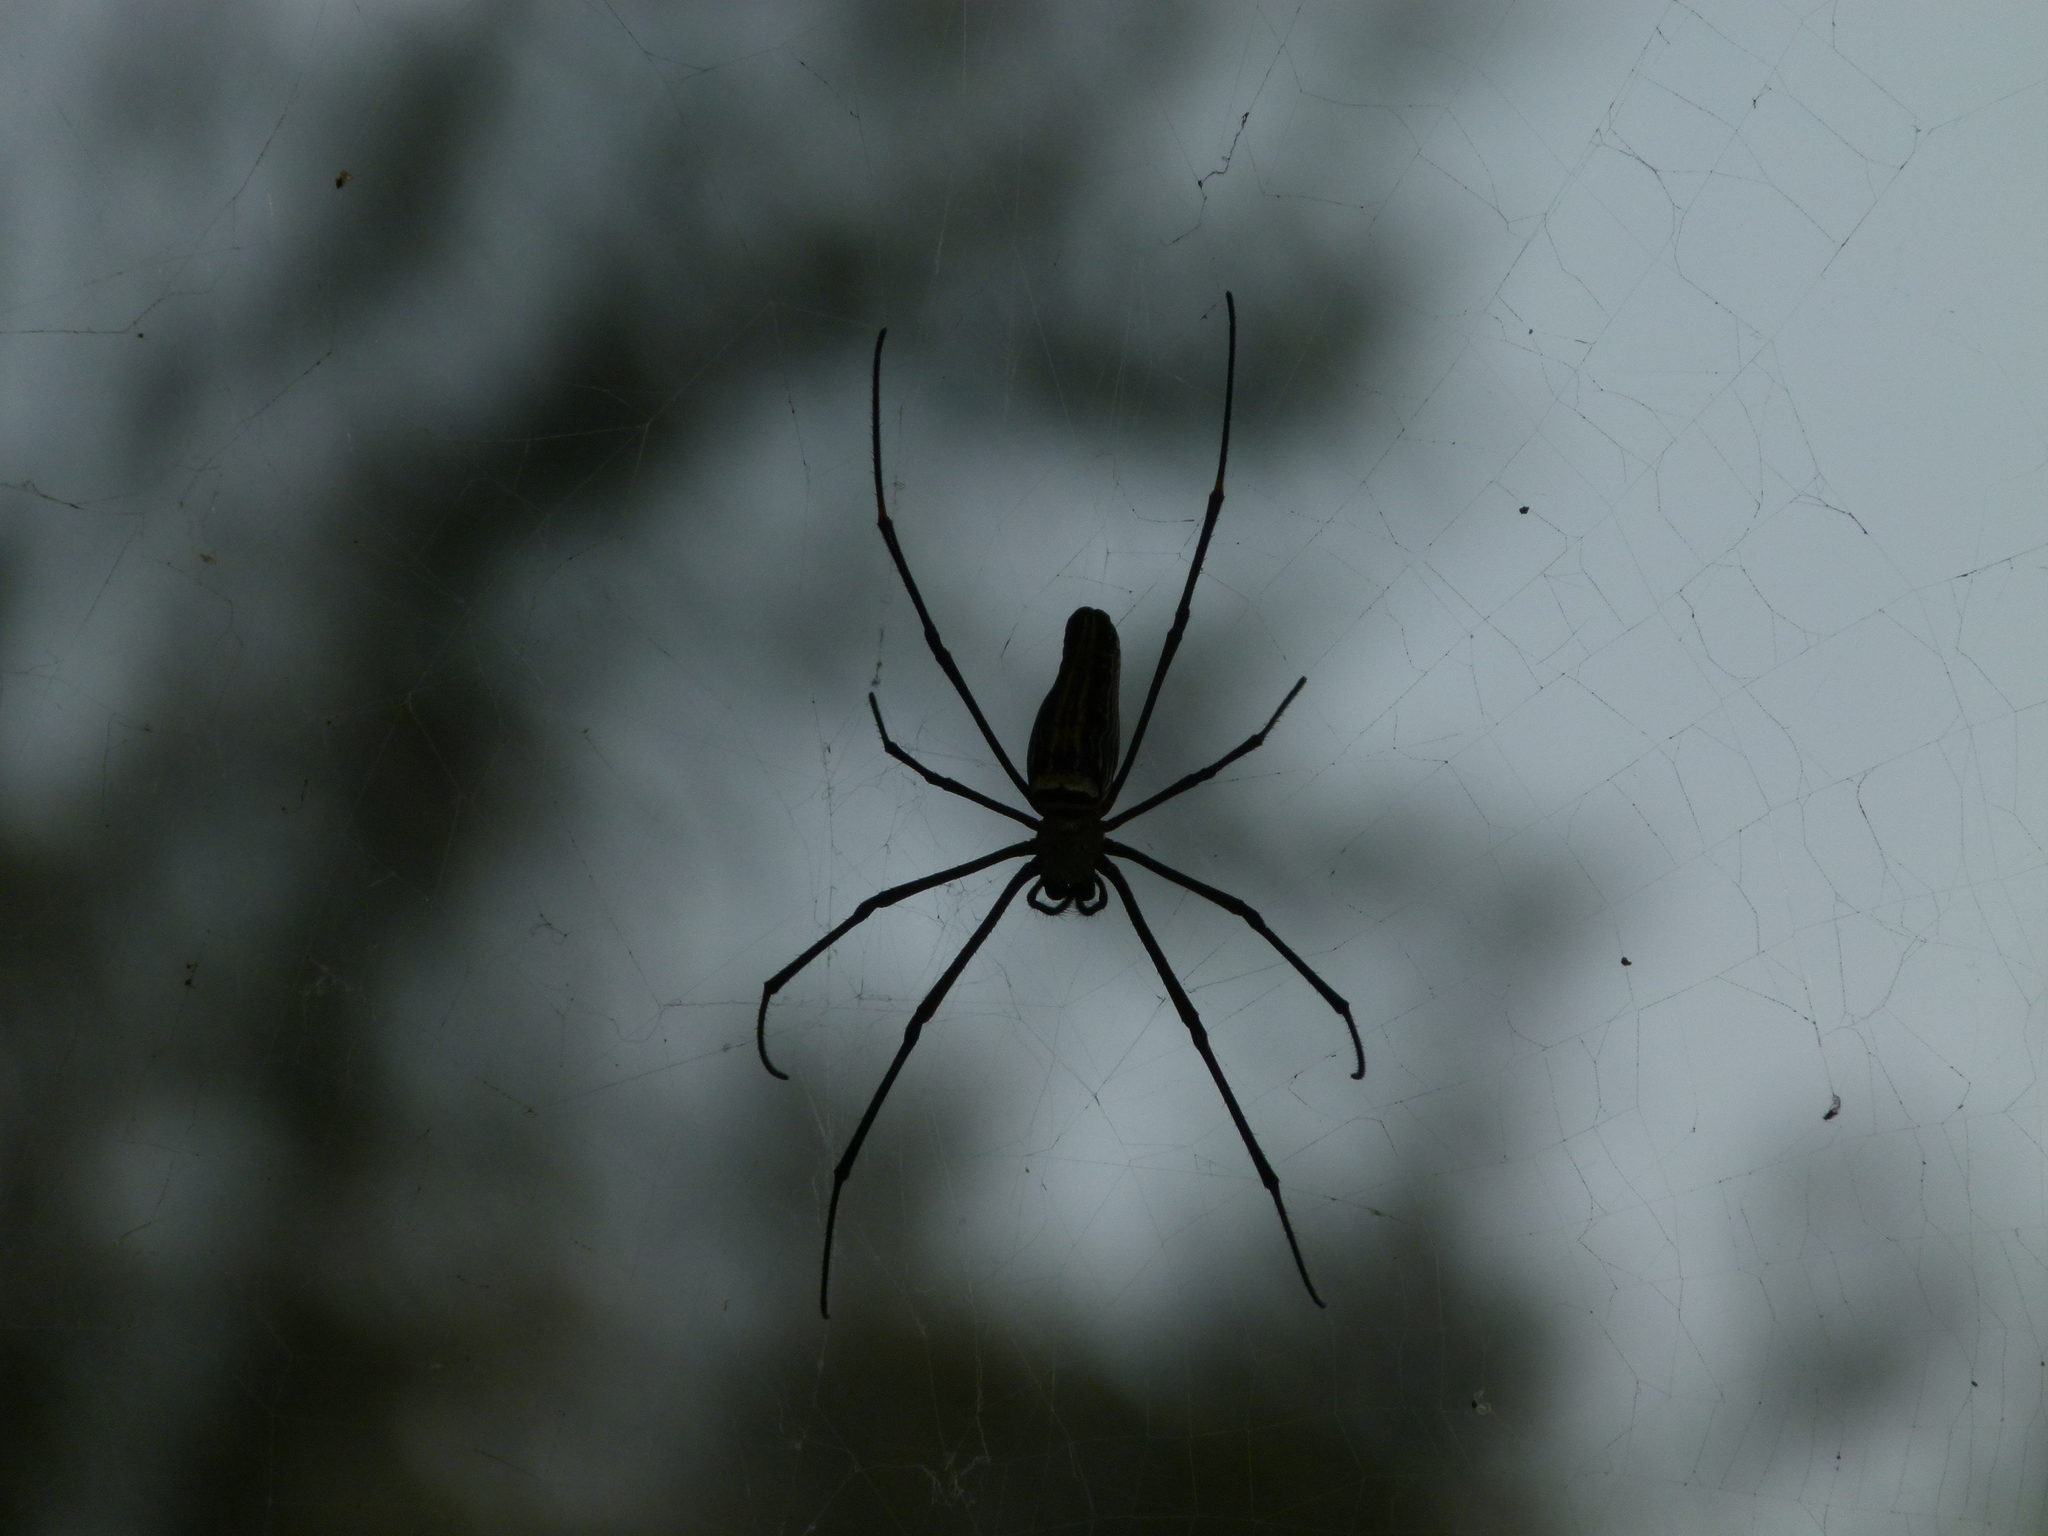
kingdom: Animalia
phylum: Arthropoda
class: Arachnida
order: Araneae
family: Araneidae
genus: Nephila
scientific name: Nephila pilipes
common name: Giant golden orb weaver
